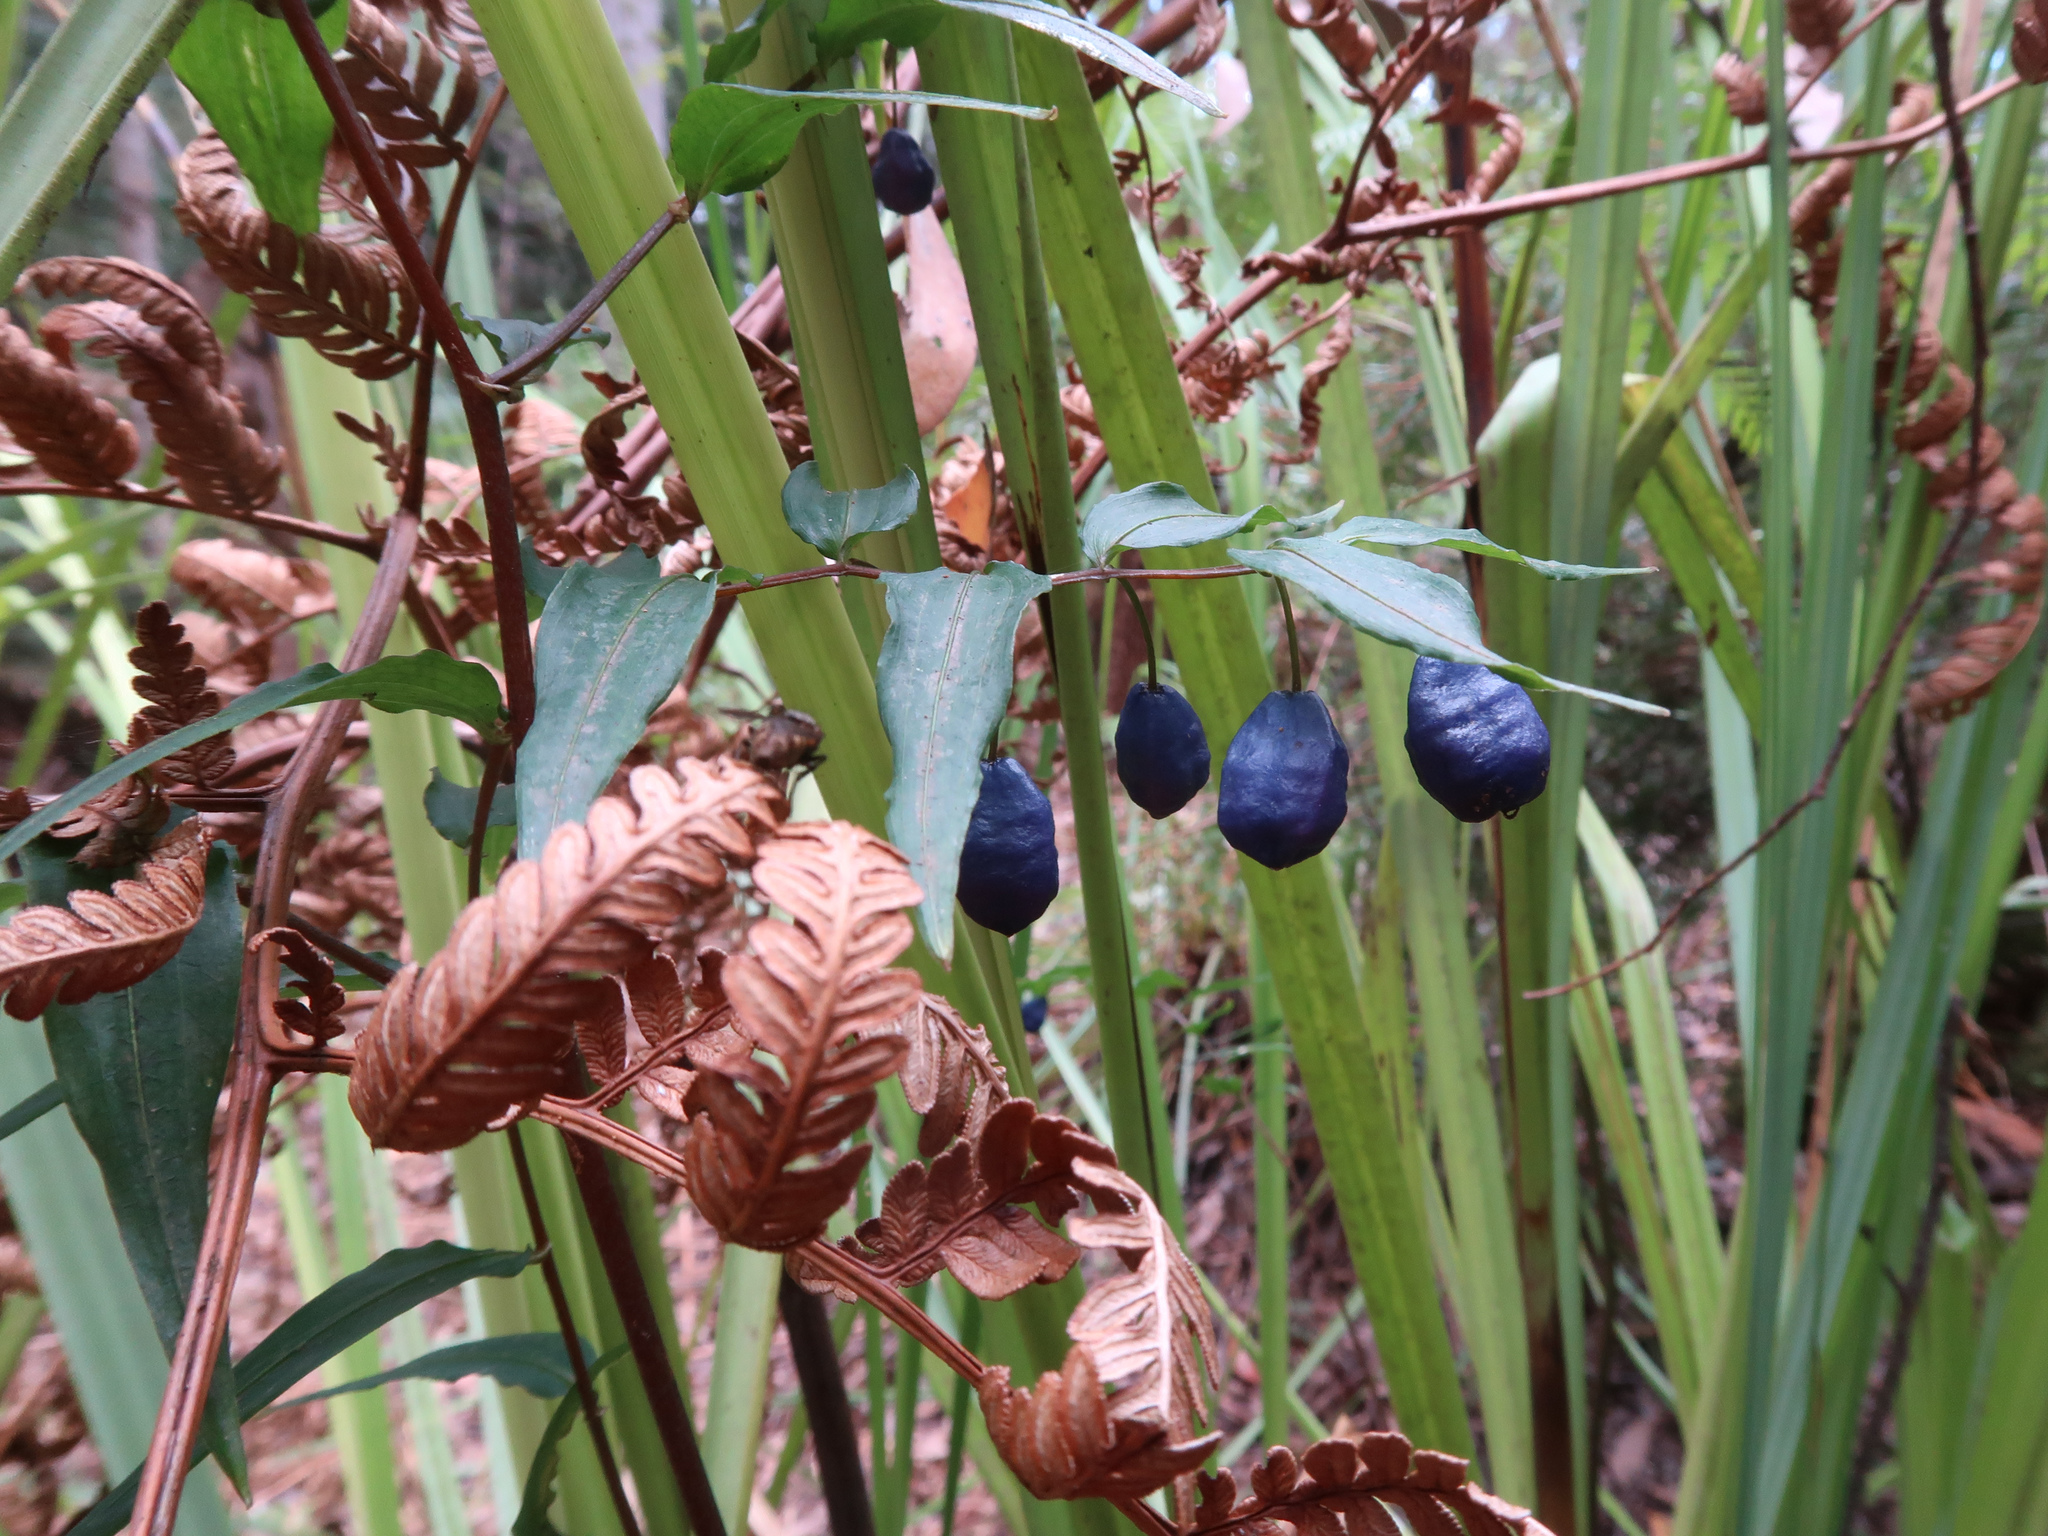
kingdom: Plantae
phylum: Tracheophyta
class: Liliopsida
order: Liliales
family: Alstroemeriaceae
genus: Drymophila
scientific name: Drymophila cyanocarpa
